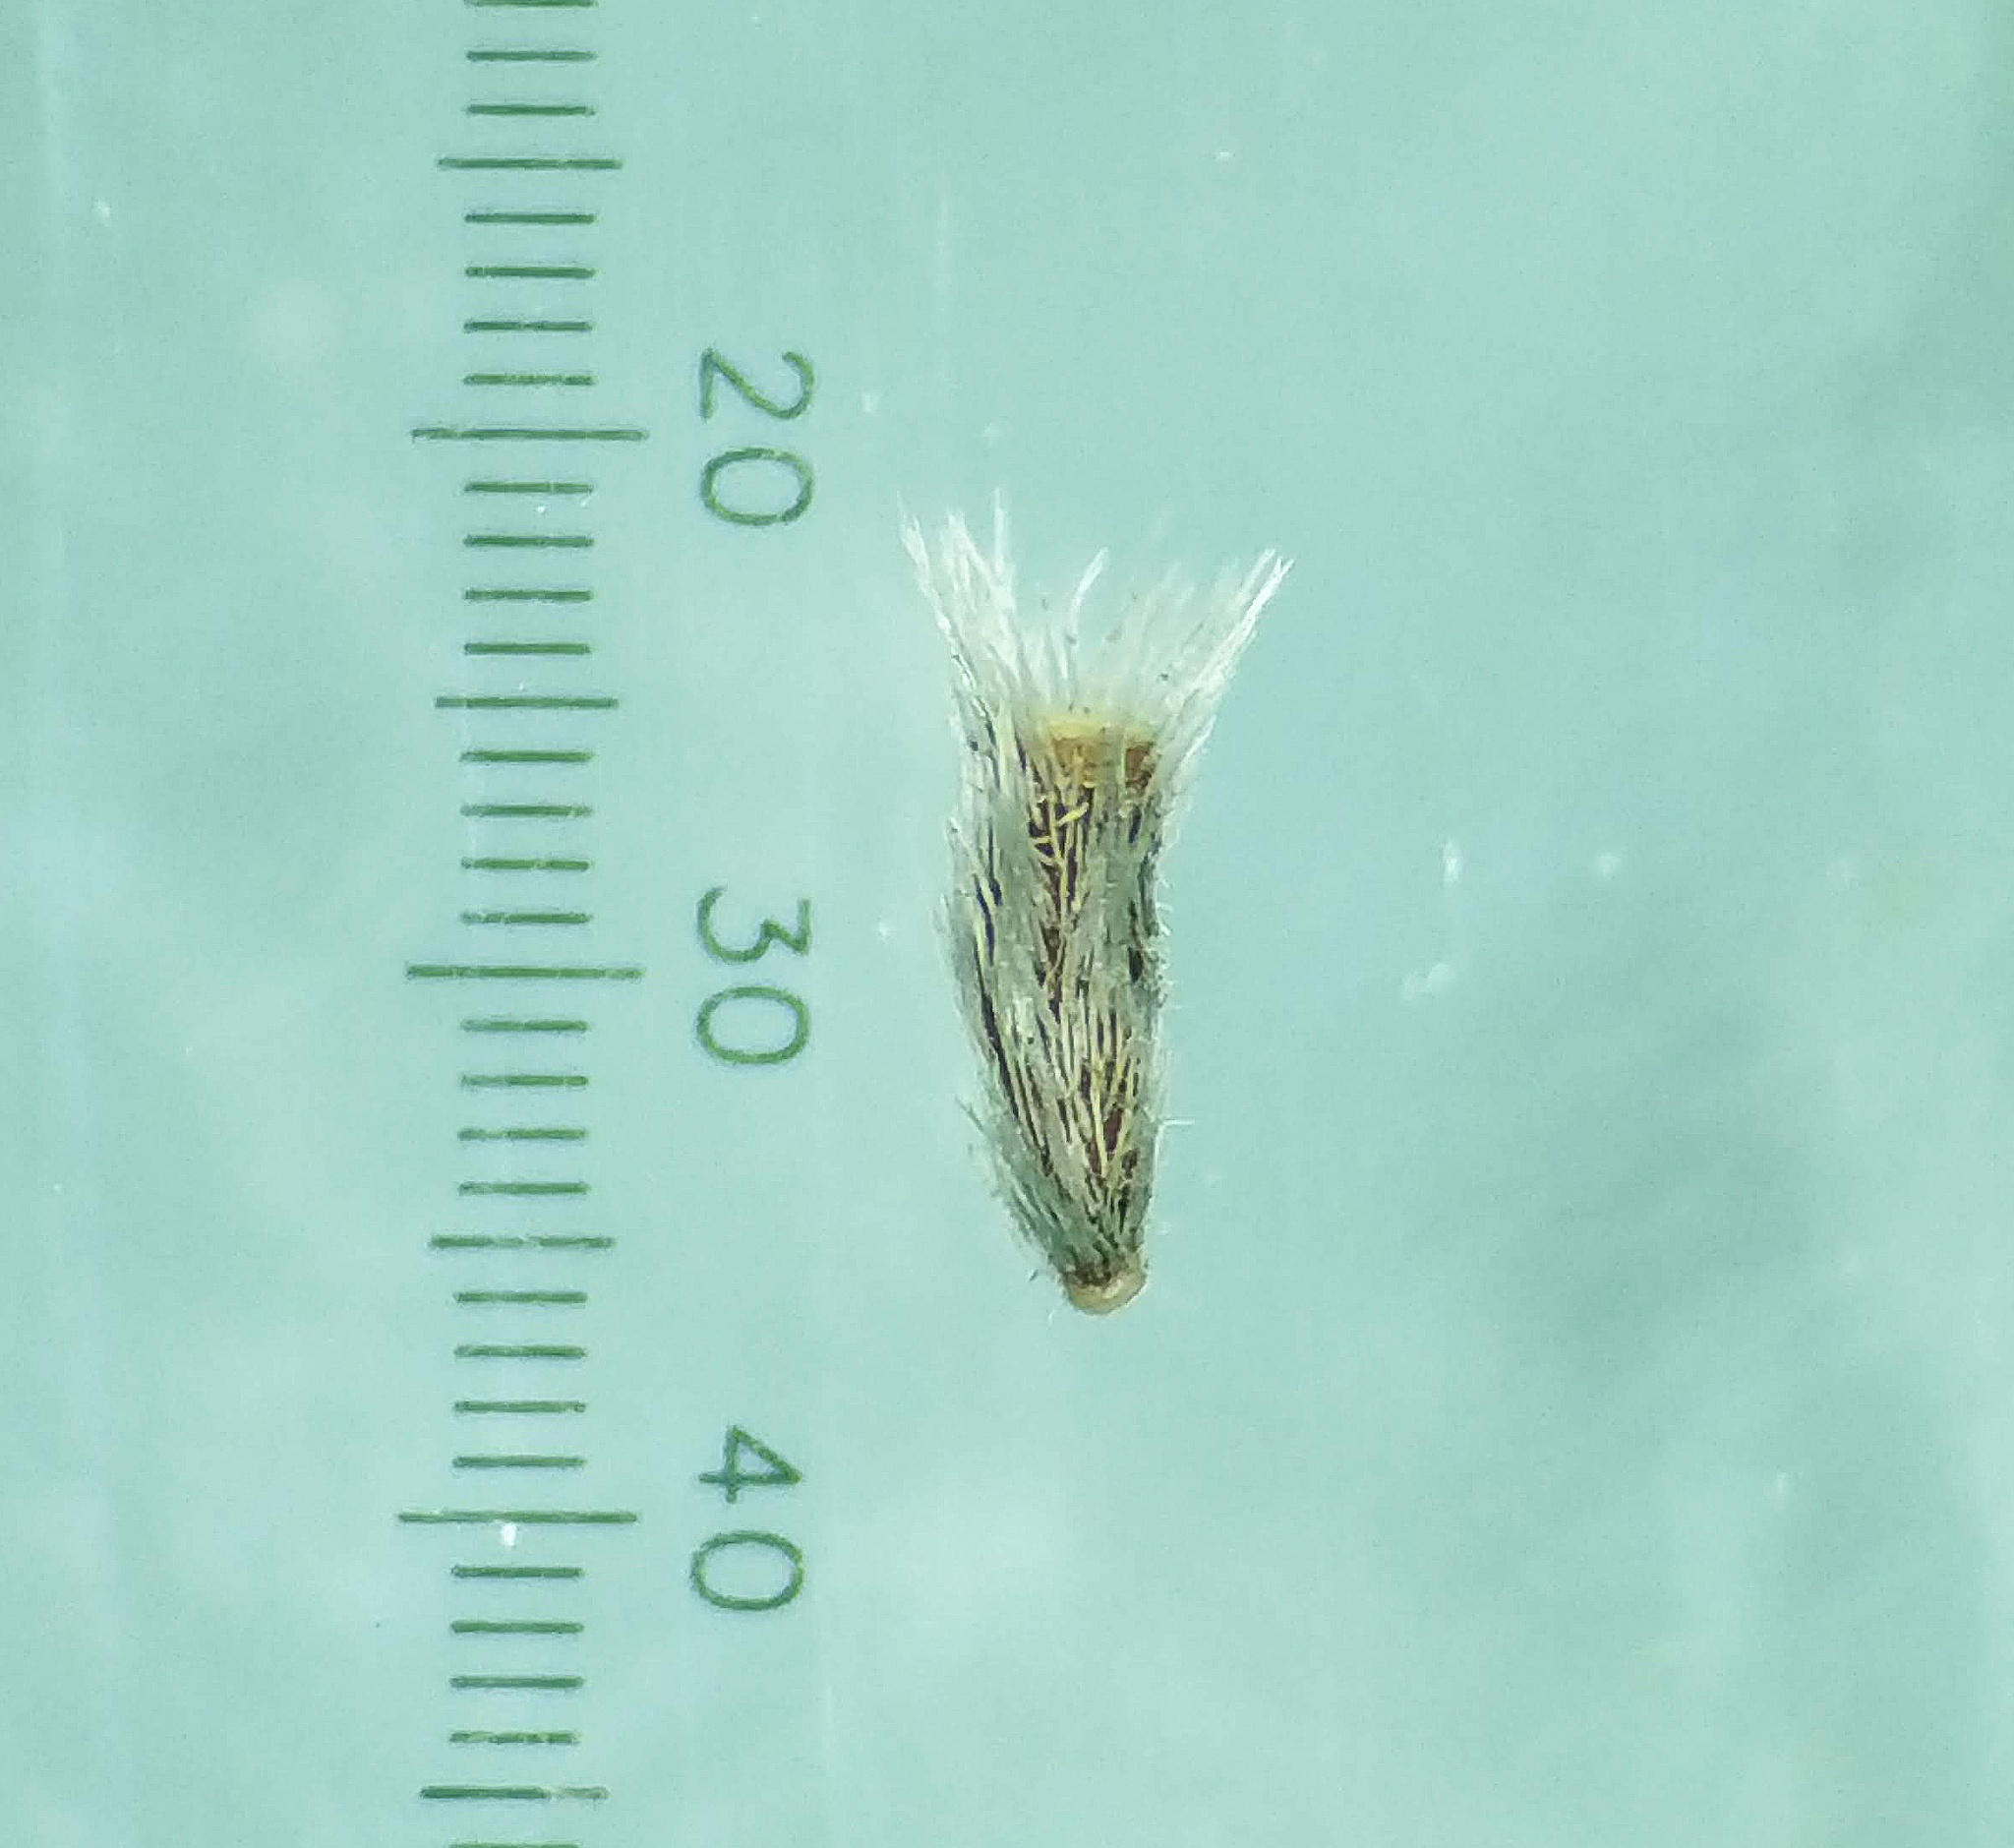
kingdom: Plantae
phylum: Tracheophyta
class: Magnoliopsida
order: Asterales
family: Asteraceae
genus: Cyanthillium
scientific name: Cyanthillium cinereum
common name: Little ironweed
